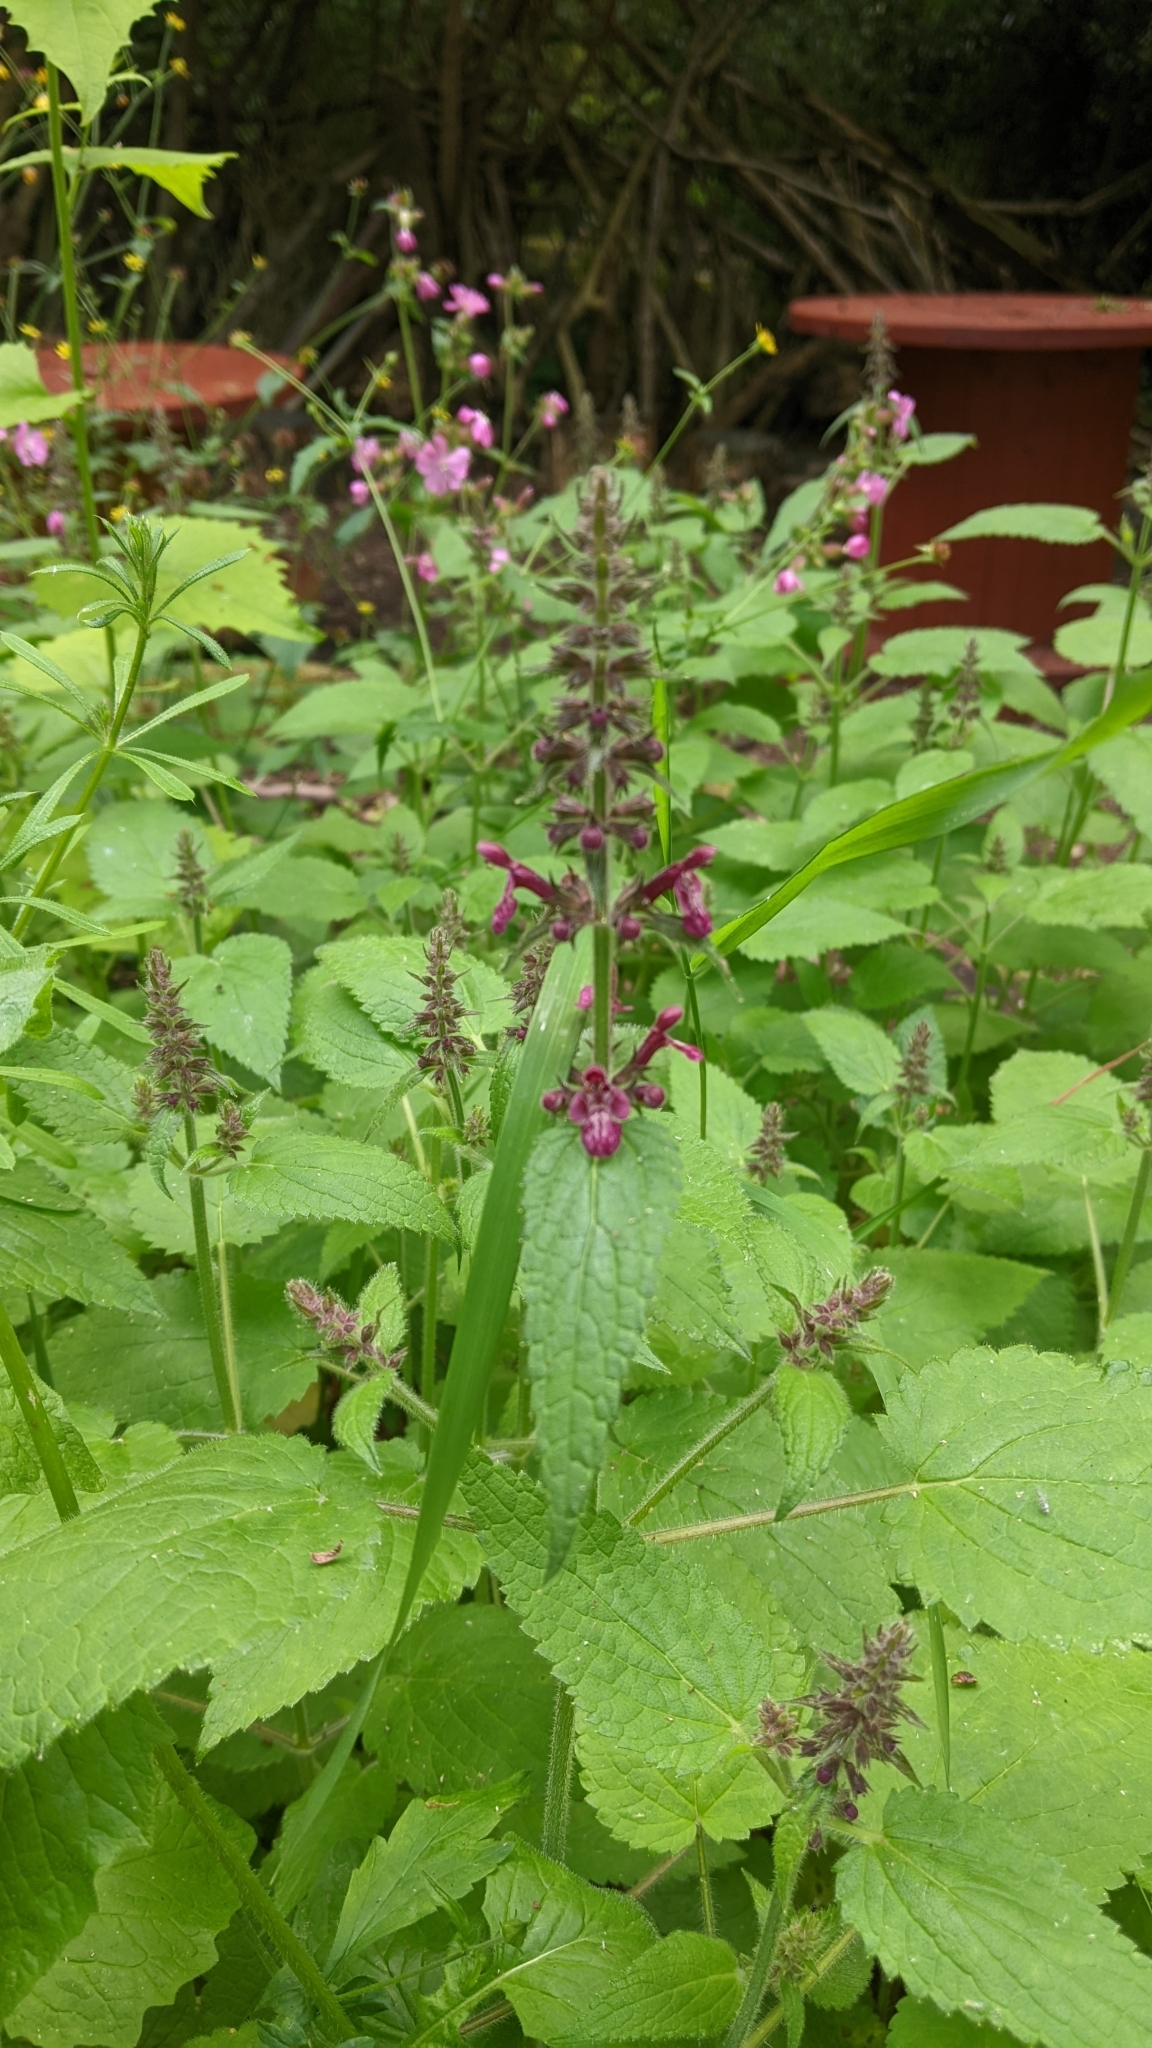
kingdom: Plantae
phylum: Tracheophyta
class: Magnoliopsida
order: Lamiales
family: Lamiaceae
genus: Stachys
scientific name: Stachys sylvatica
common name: Hedge woundwort
